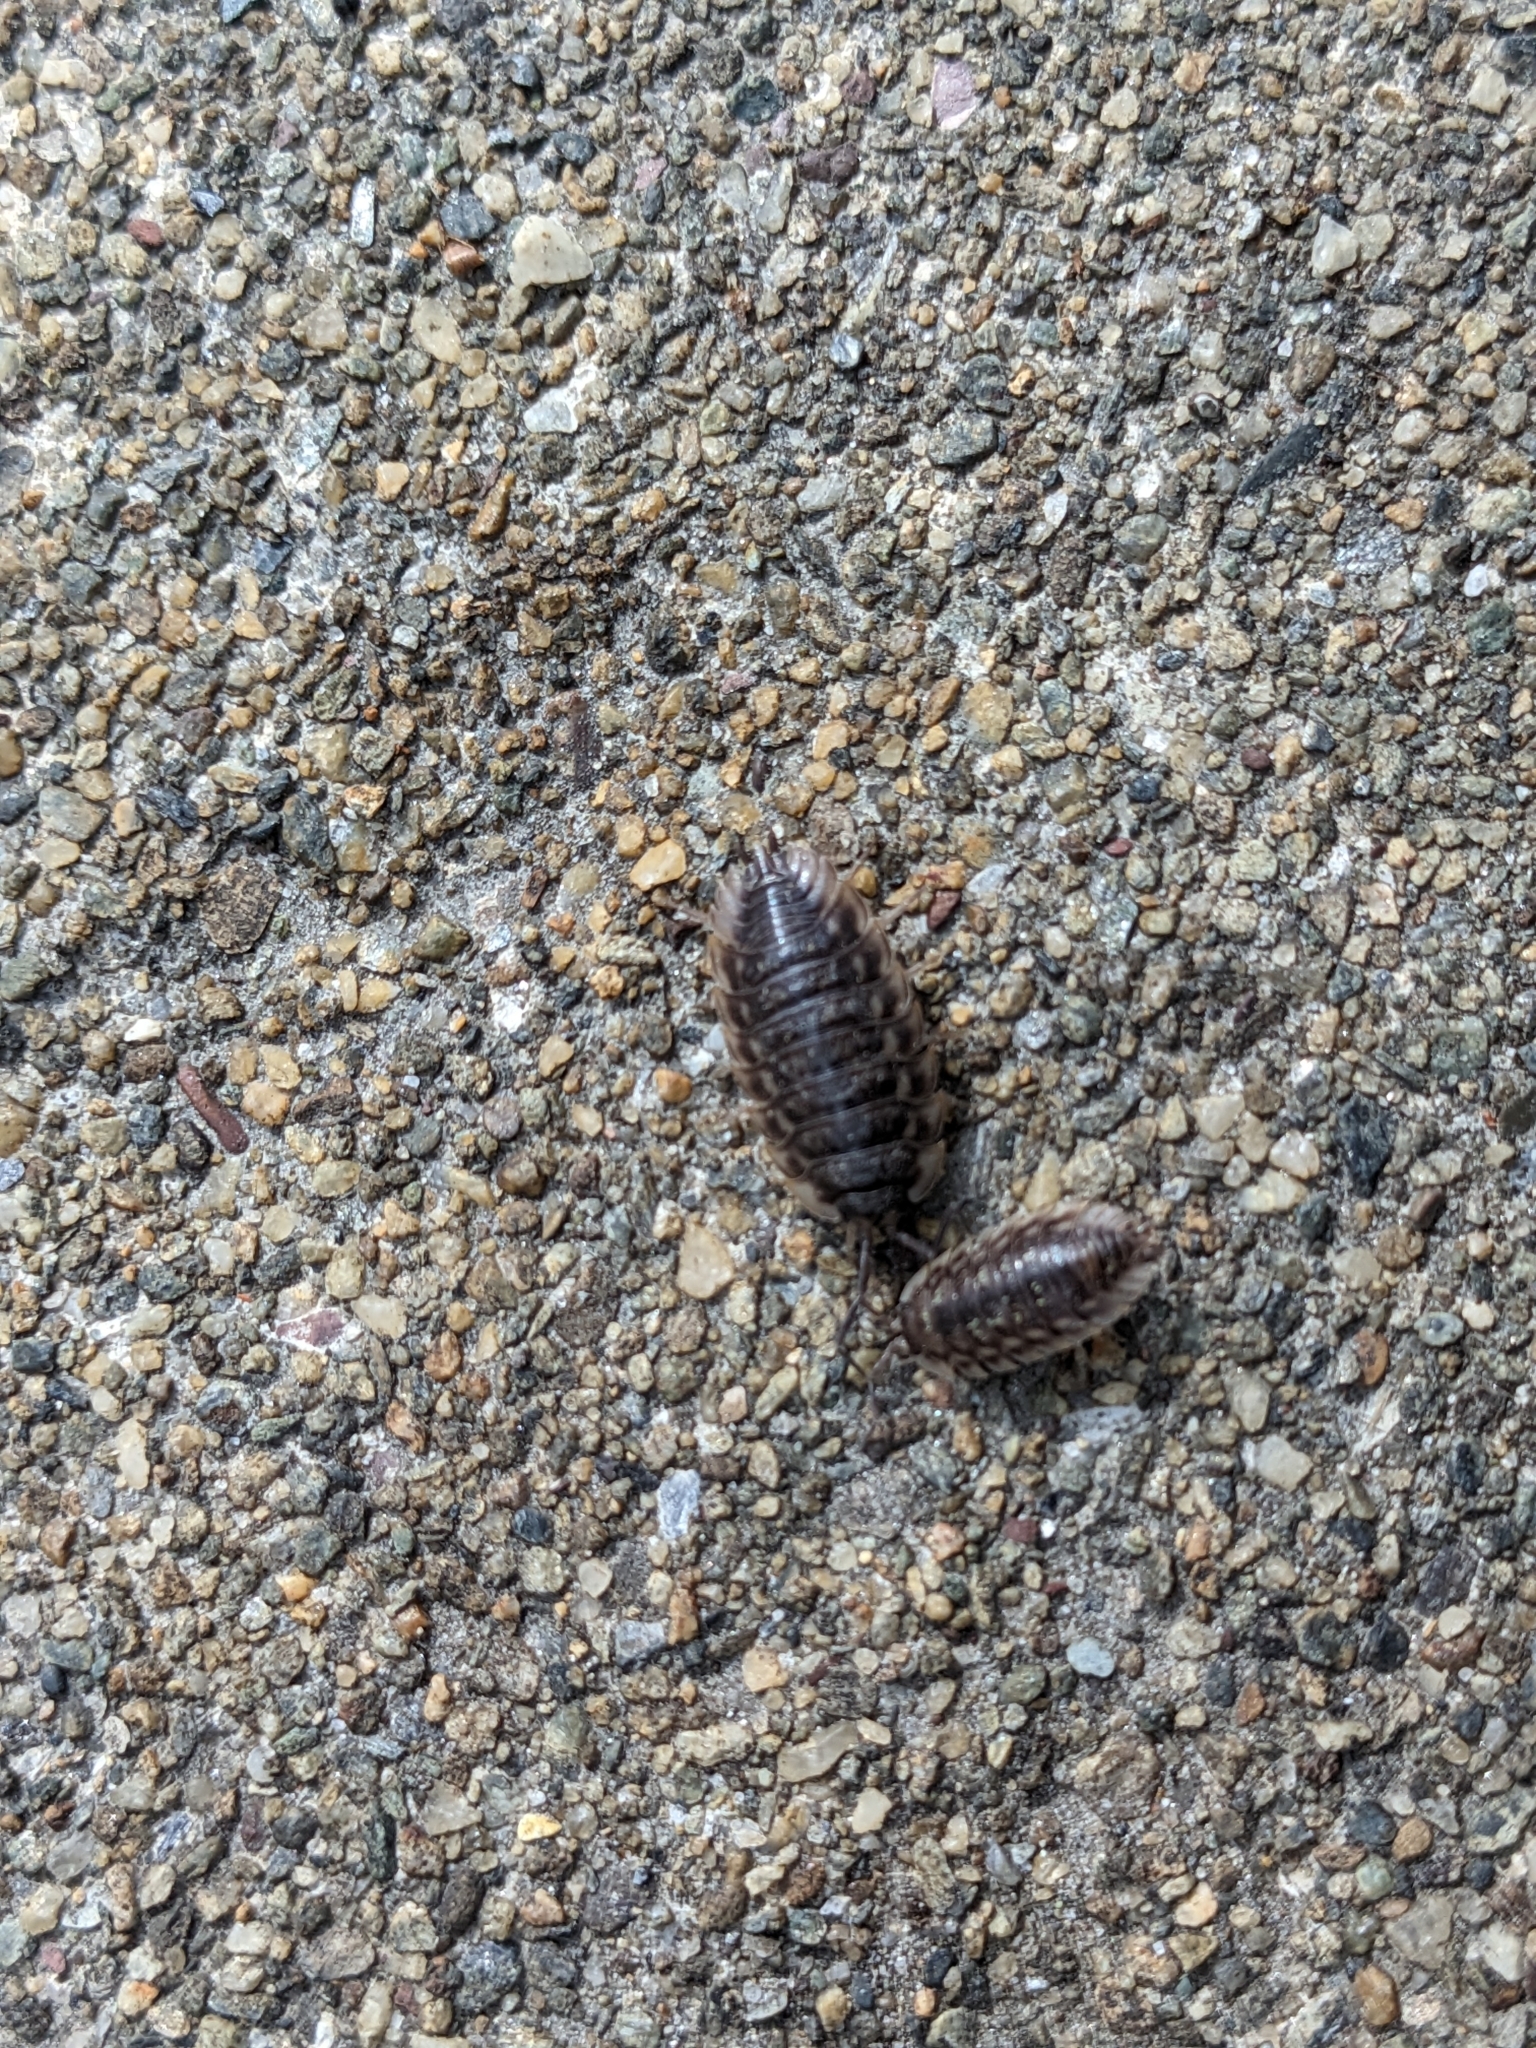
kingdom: Animalia
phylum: Arthropoda
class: Malacostraca
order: Isopoda
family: Oniscidae
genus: Oniscus
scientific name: Oniscus asellus
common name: Common shiny woodlouse
